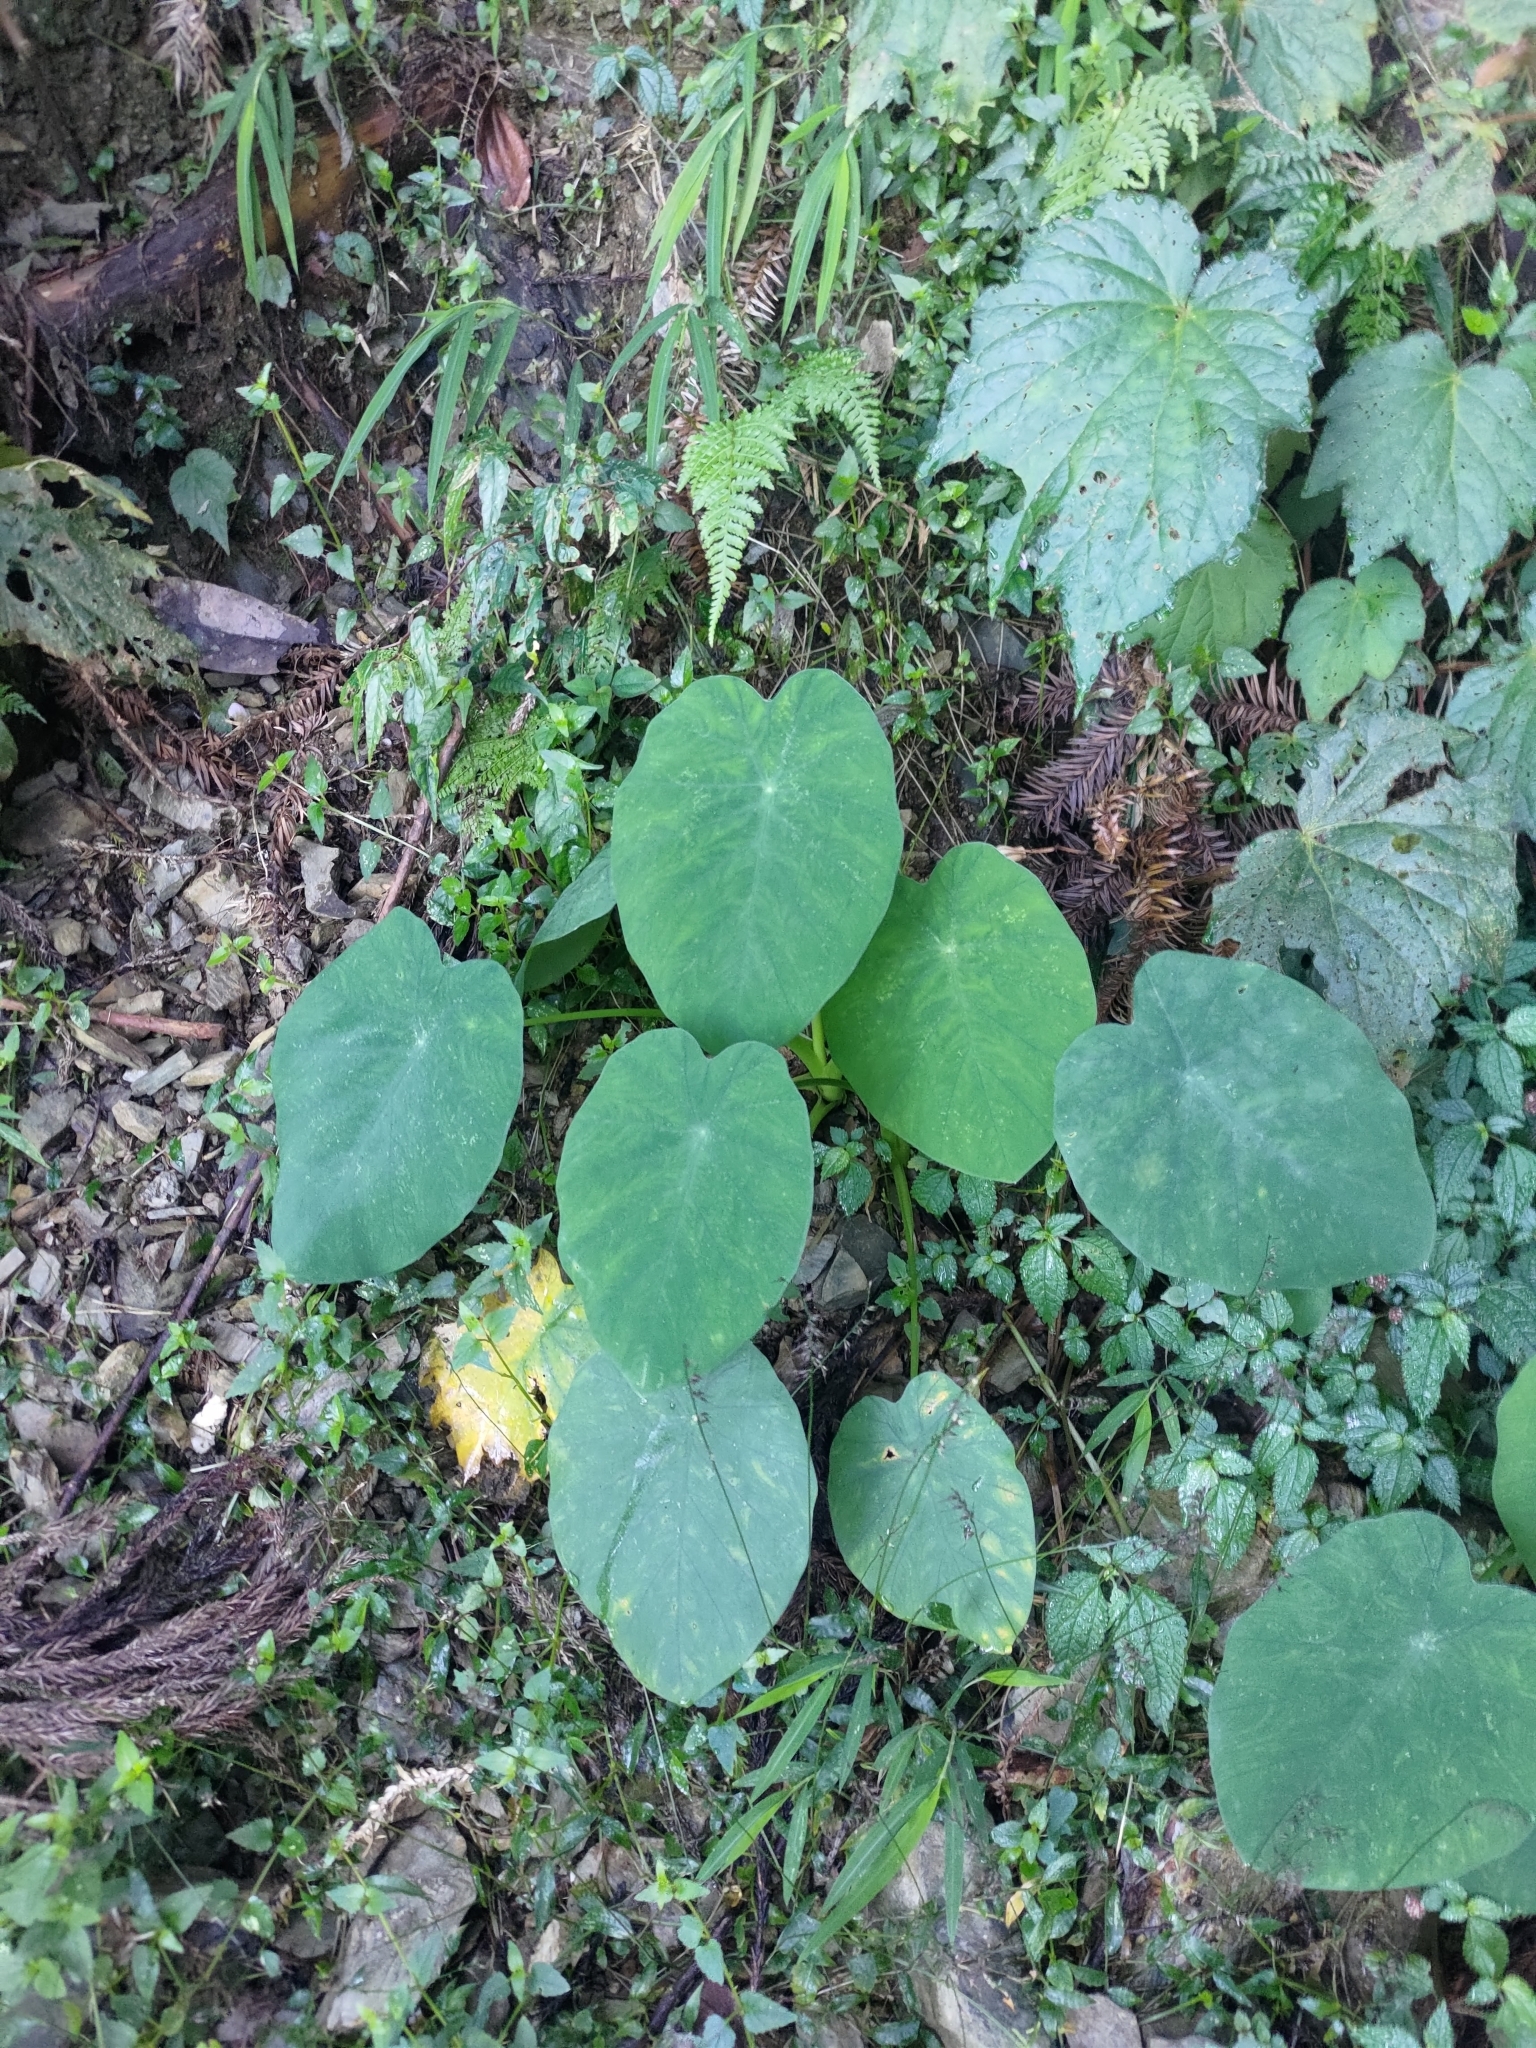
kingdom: Plantae
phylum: Tracheophyta
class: Liliopsida
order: Alismatales
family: Araceae
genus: Colocasia
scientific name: Colocasia esculenta
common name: Taro
